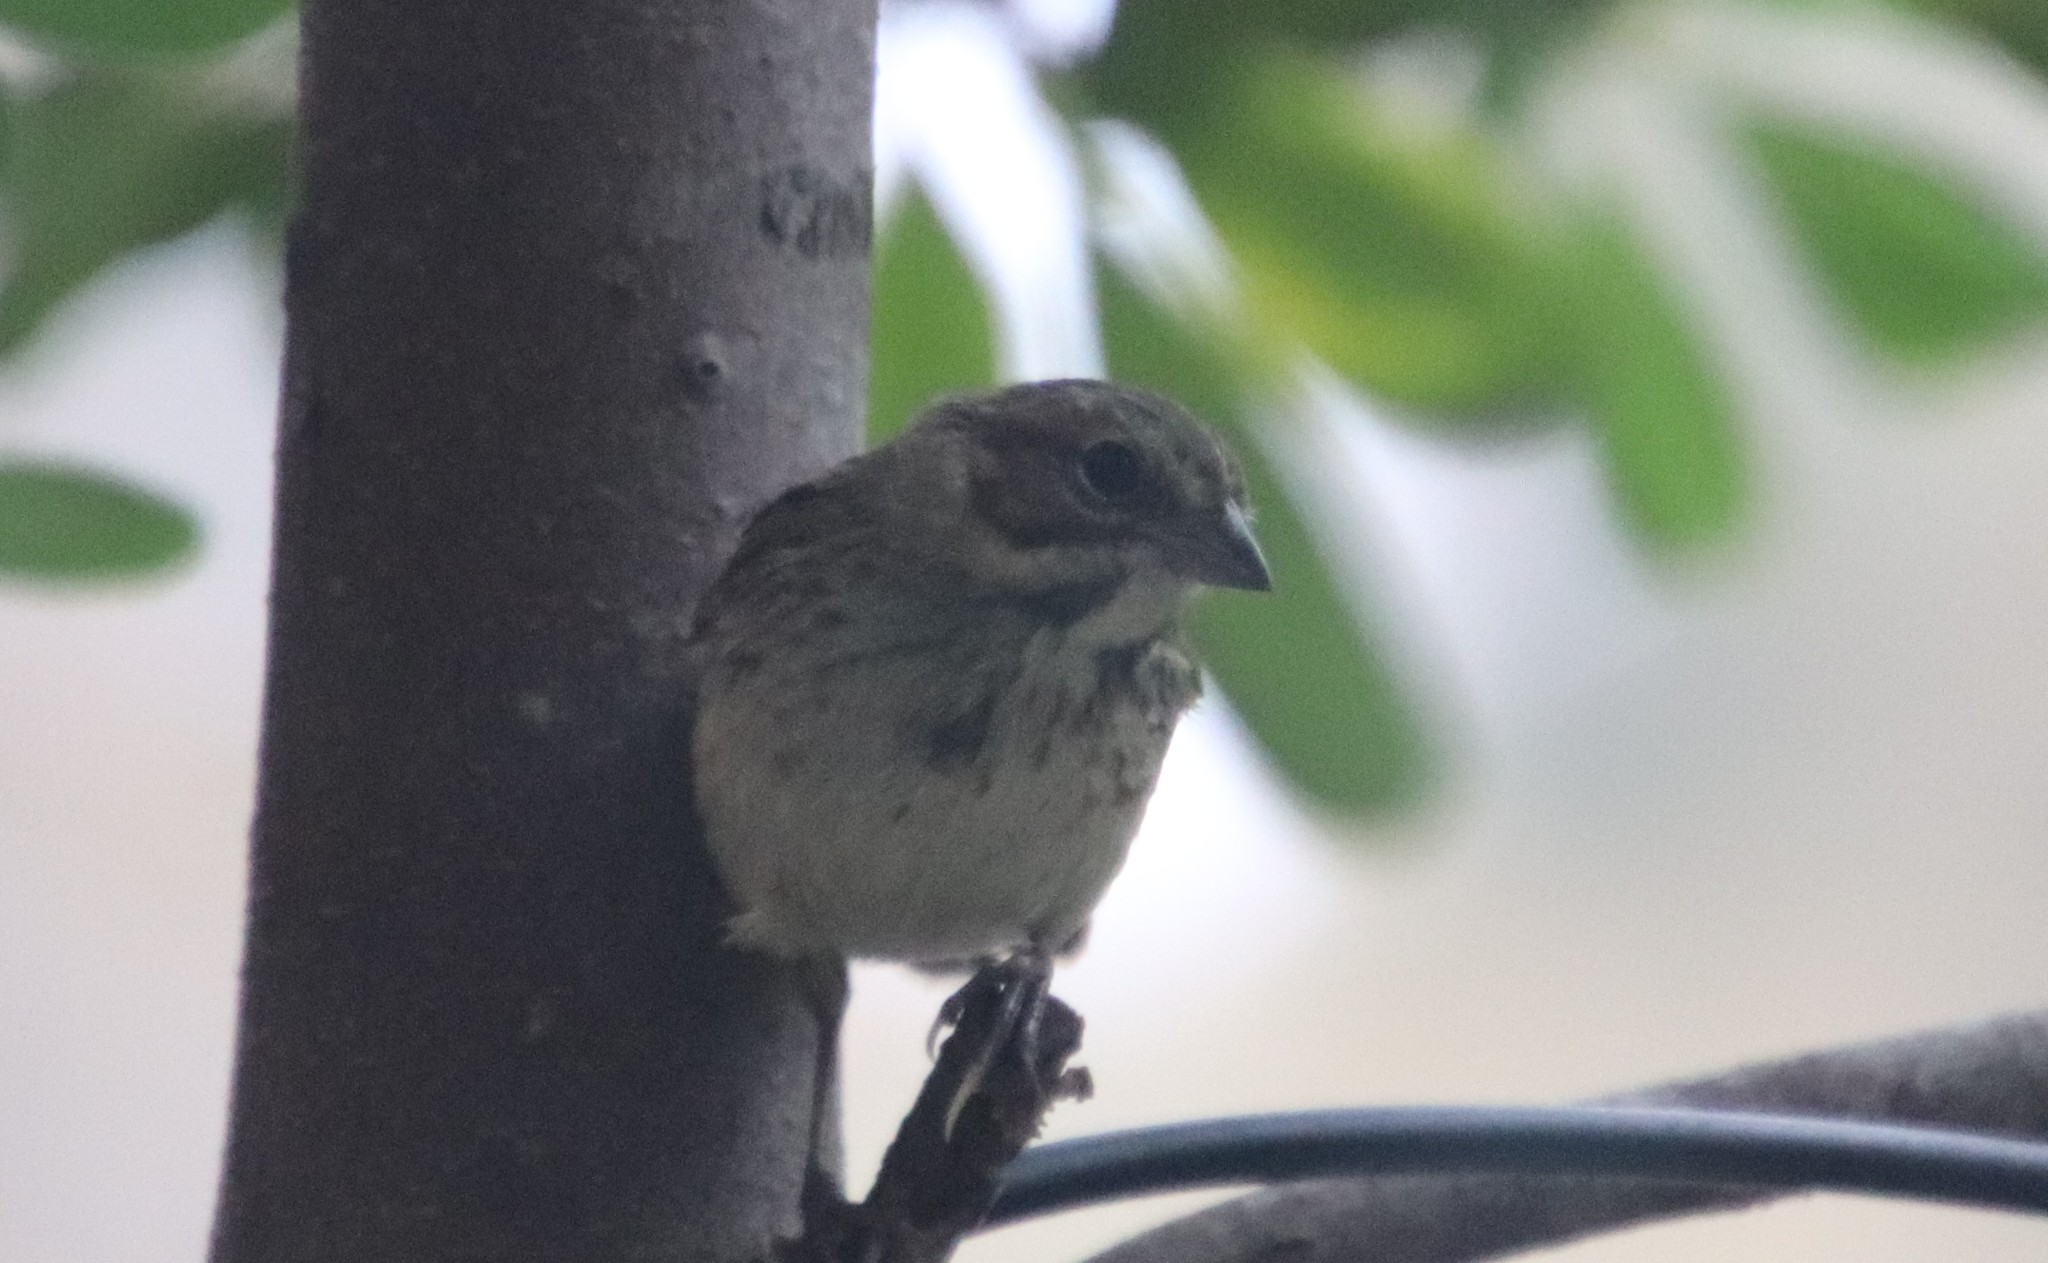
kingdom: Animalia
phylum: Chordata
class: Aves
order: Passeriformes
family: Passerellidae
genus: Melospiza
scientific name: Melospiza melodia
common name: Song sparrow
